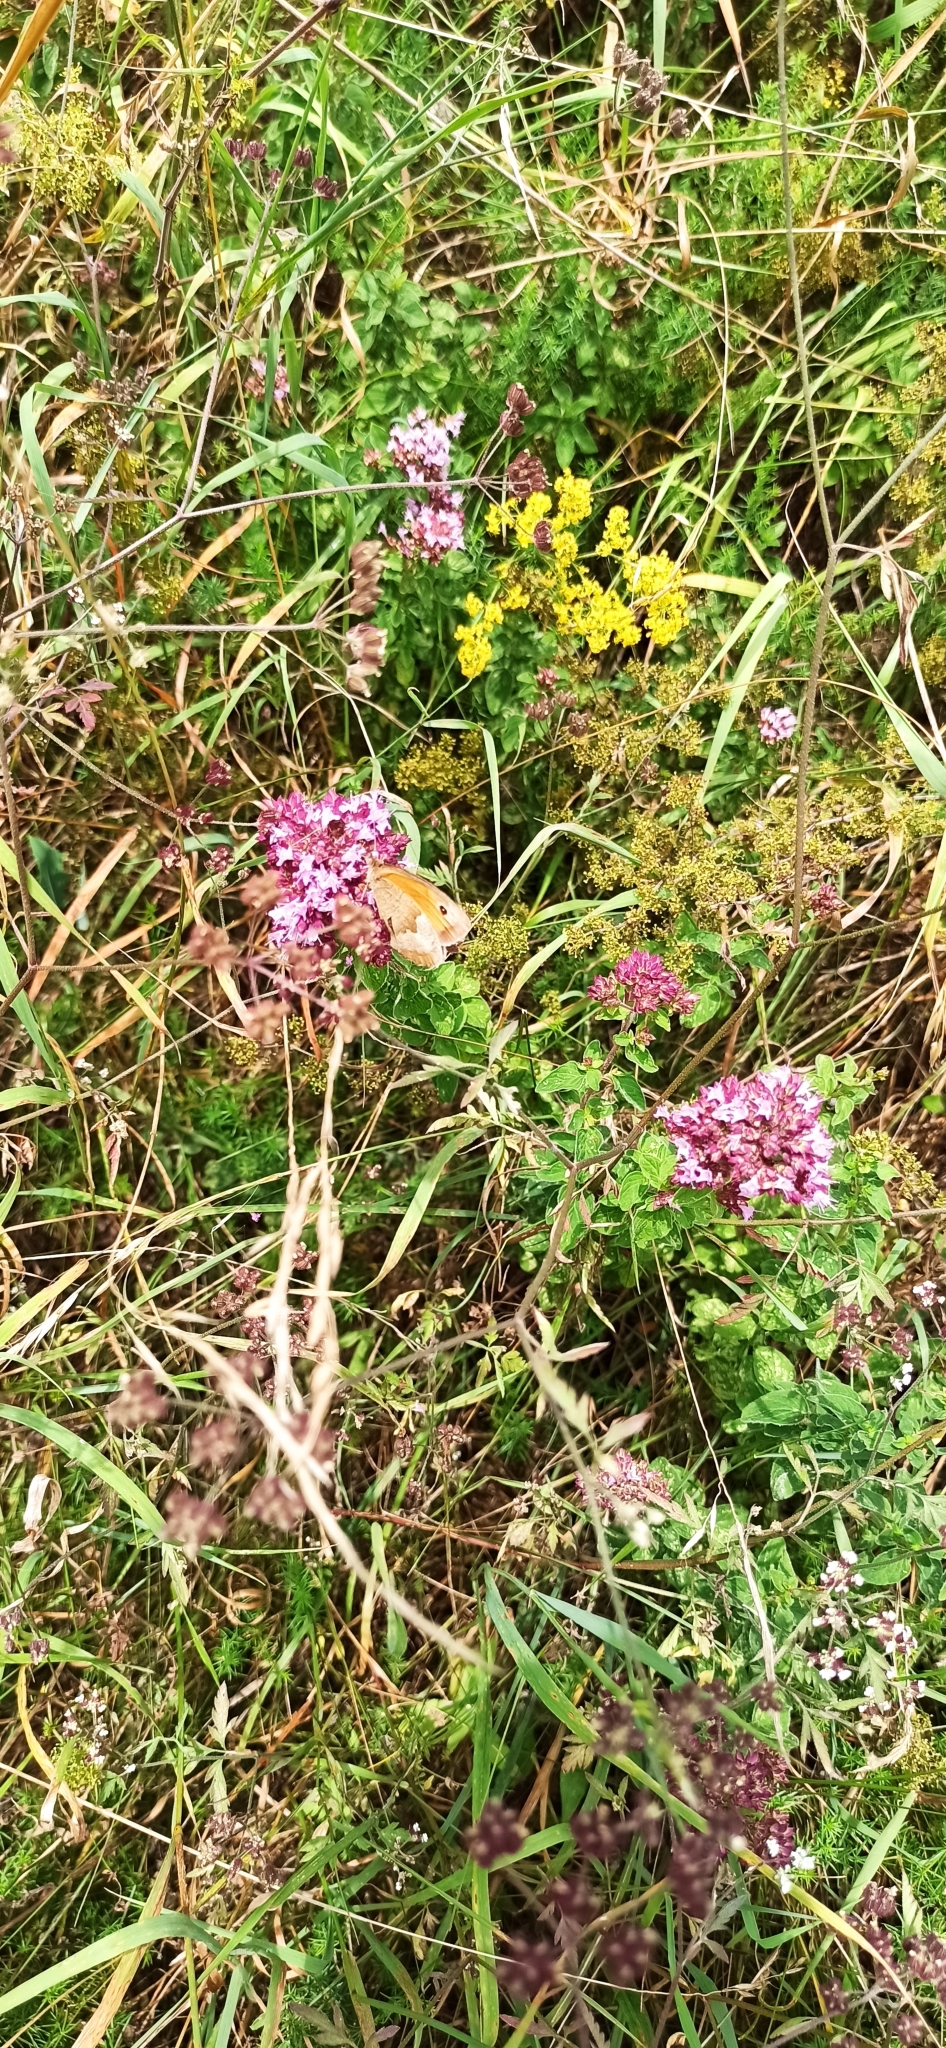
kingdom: Animalia
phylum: Arthropoda
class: Insecta
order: Lepidoptera
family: Nymphalidae
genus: Maniola
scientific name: Maniola jurtina
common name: Meadow brown
